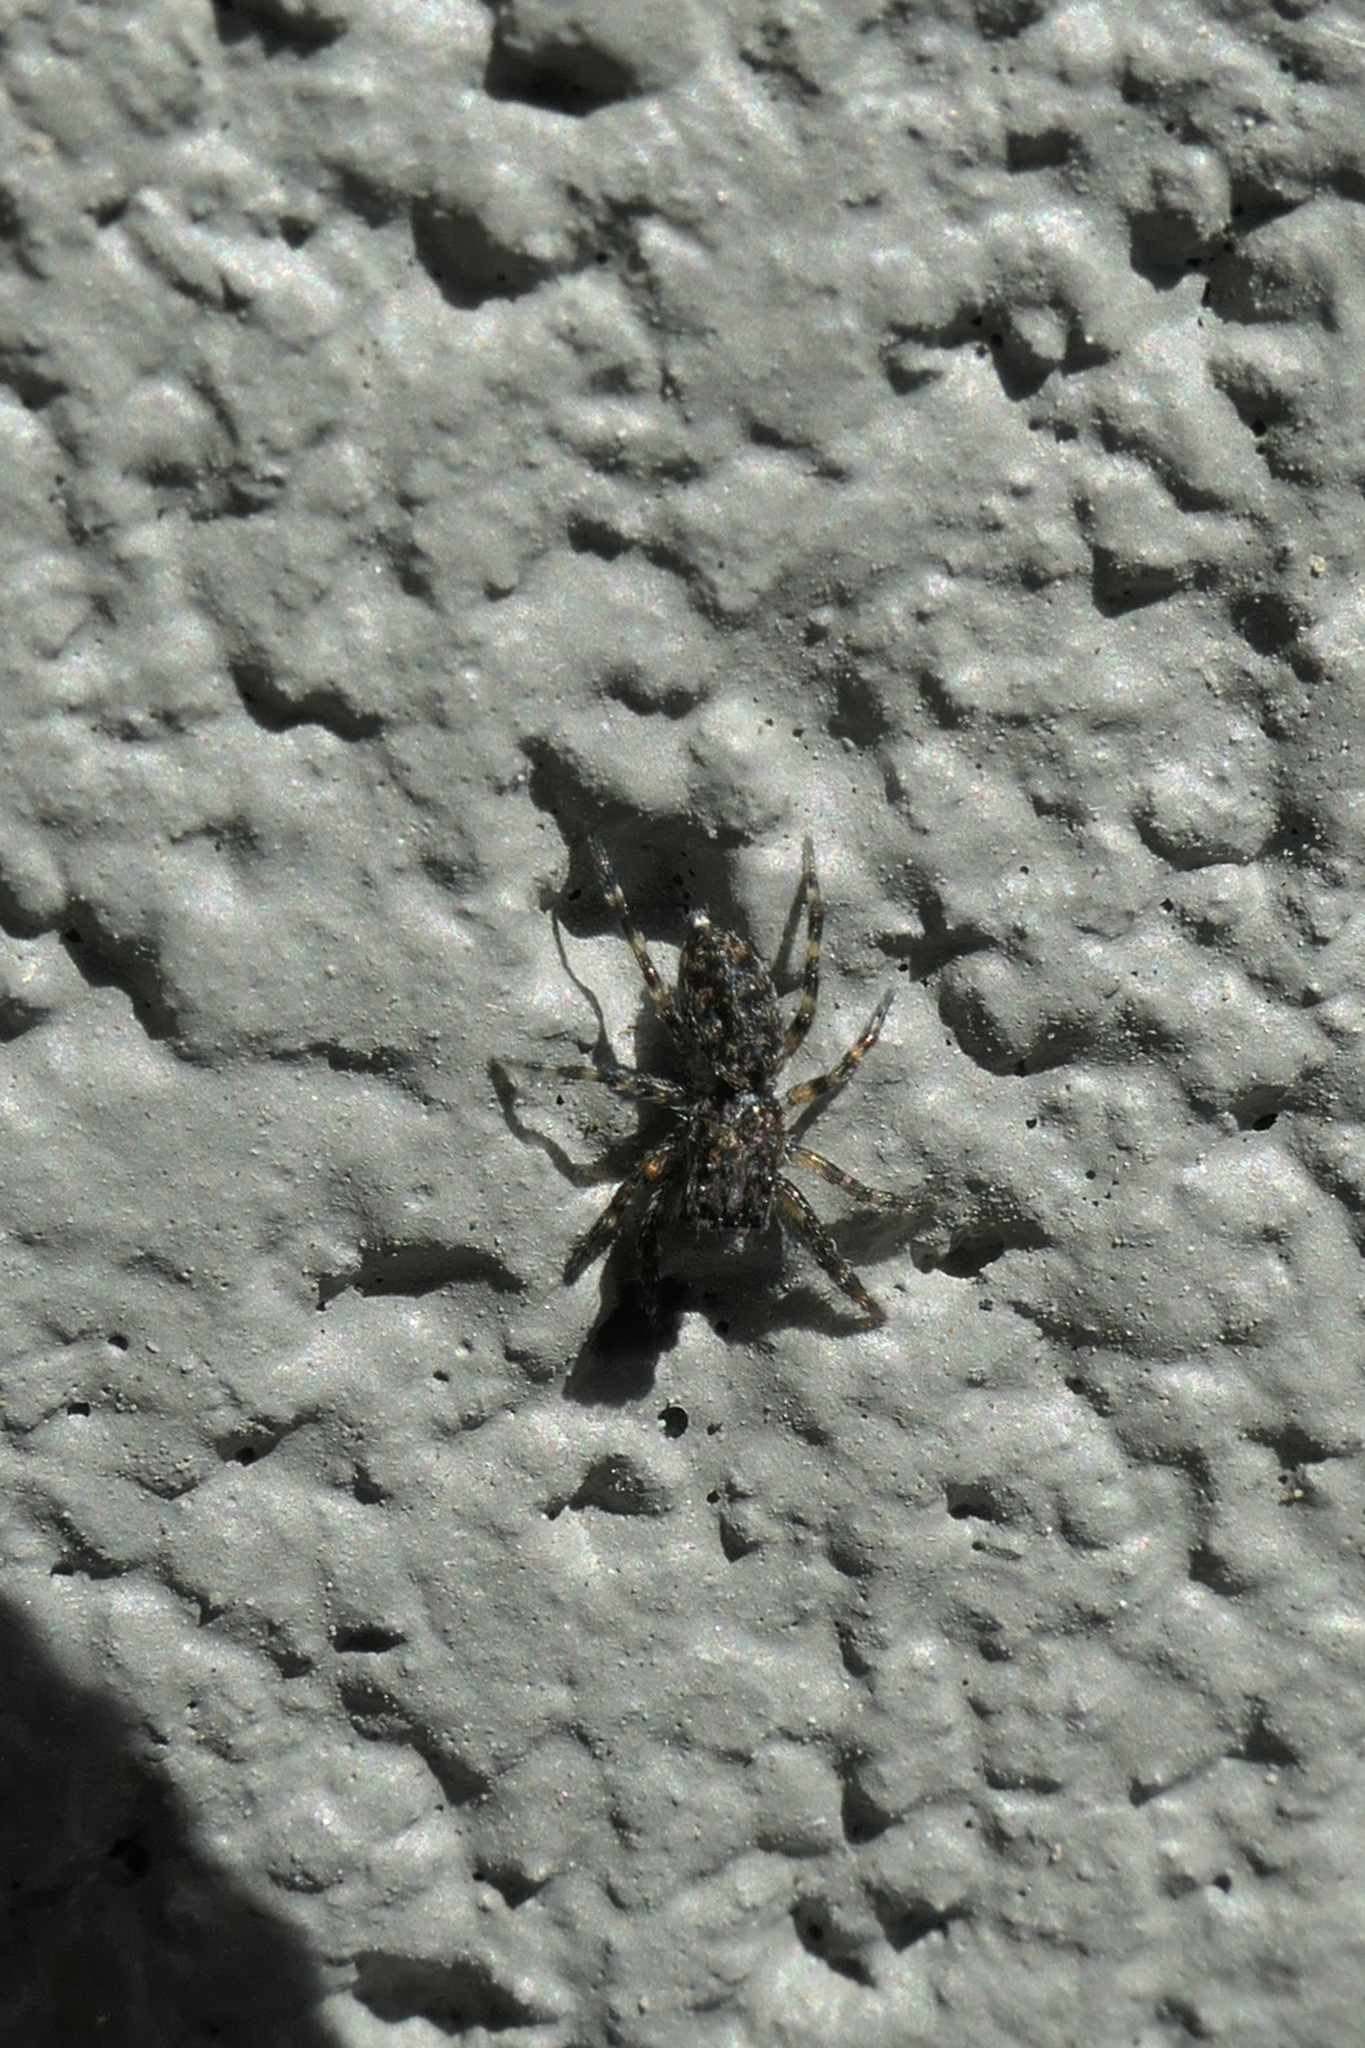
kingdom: Animalia
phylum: Arthropoda
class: Arachnida
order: Araneae
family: Salticidae
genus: Adoxotoma
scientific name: Adoxotoma forsteri
